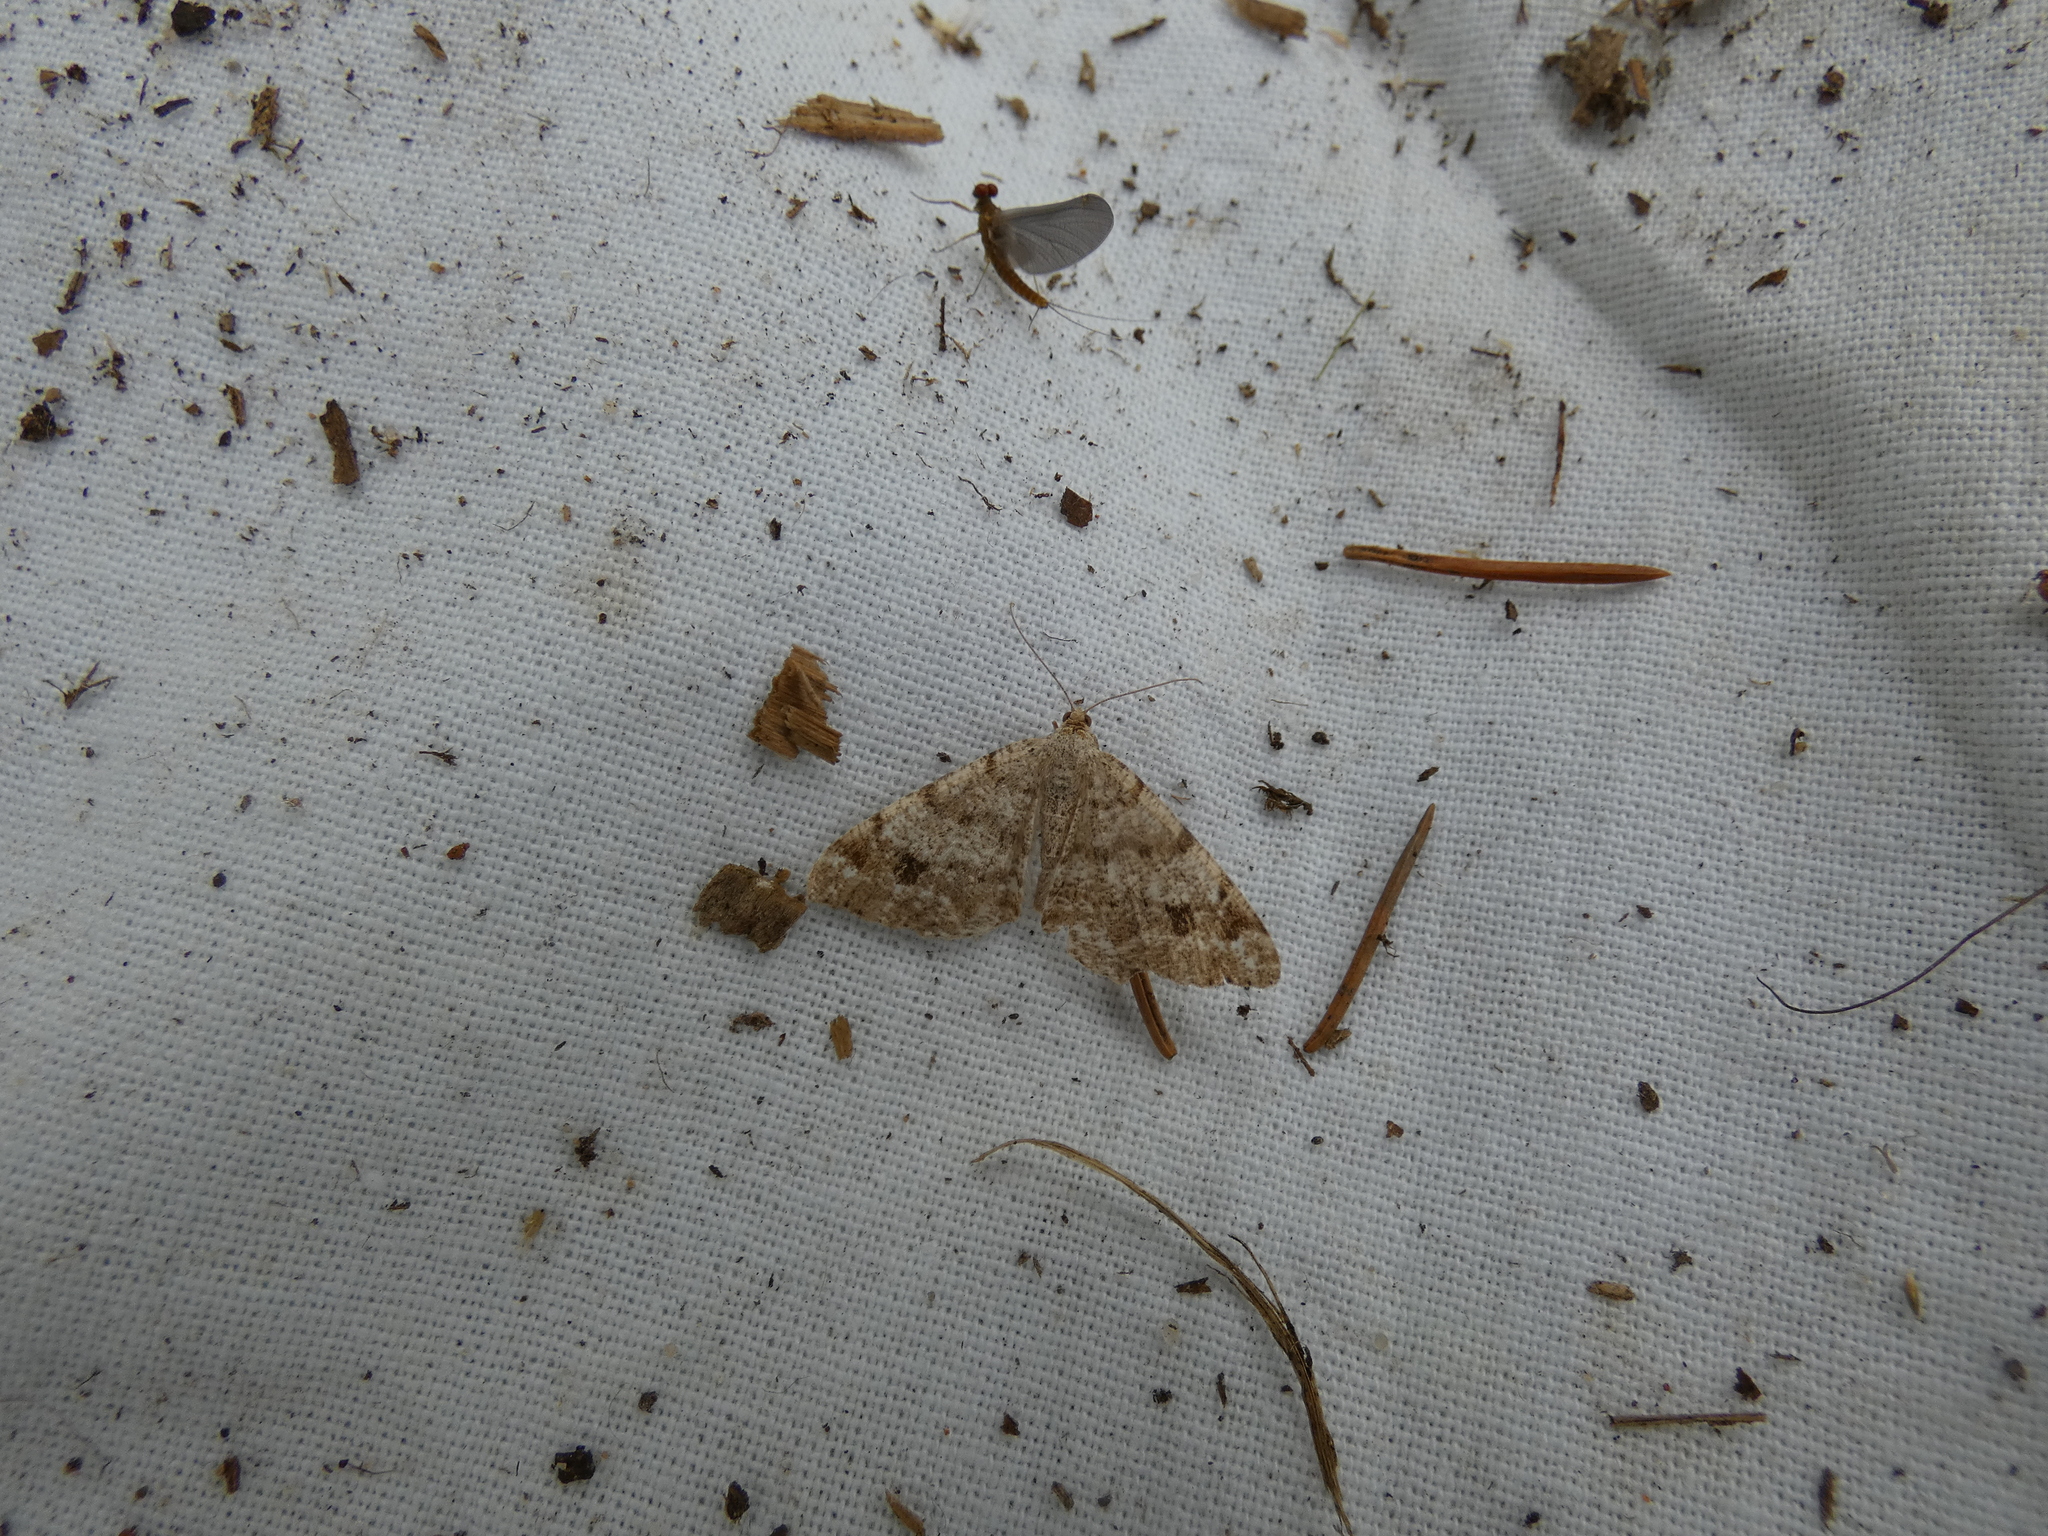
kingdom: Animalia
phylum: Arthropoda
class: Insecta
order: Lepidoptera
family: Geometridae
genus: Macaria
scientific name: Macaria signaria
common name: Dusky peacock
